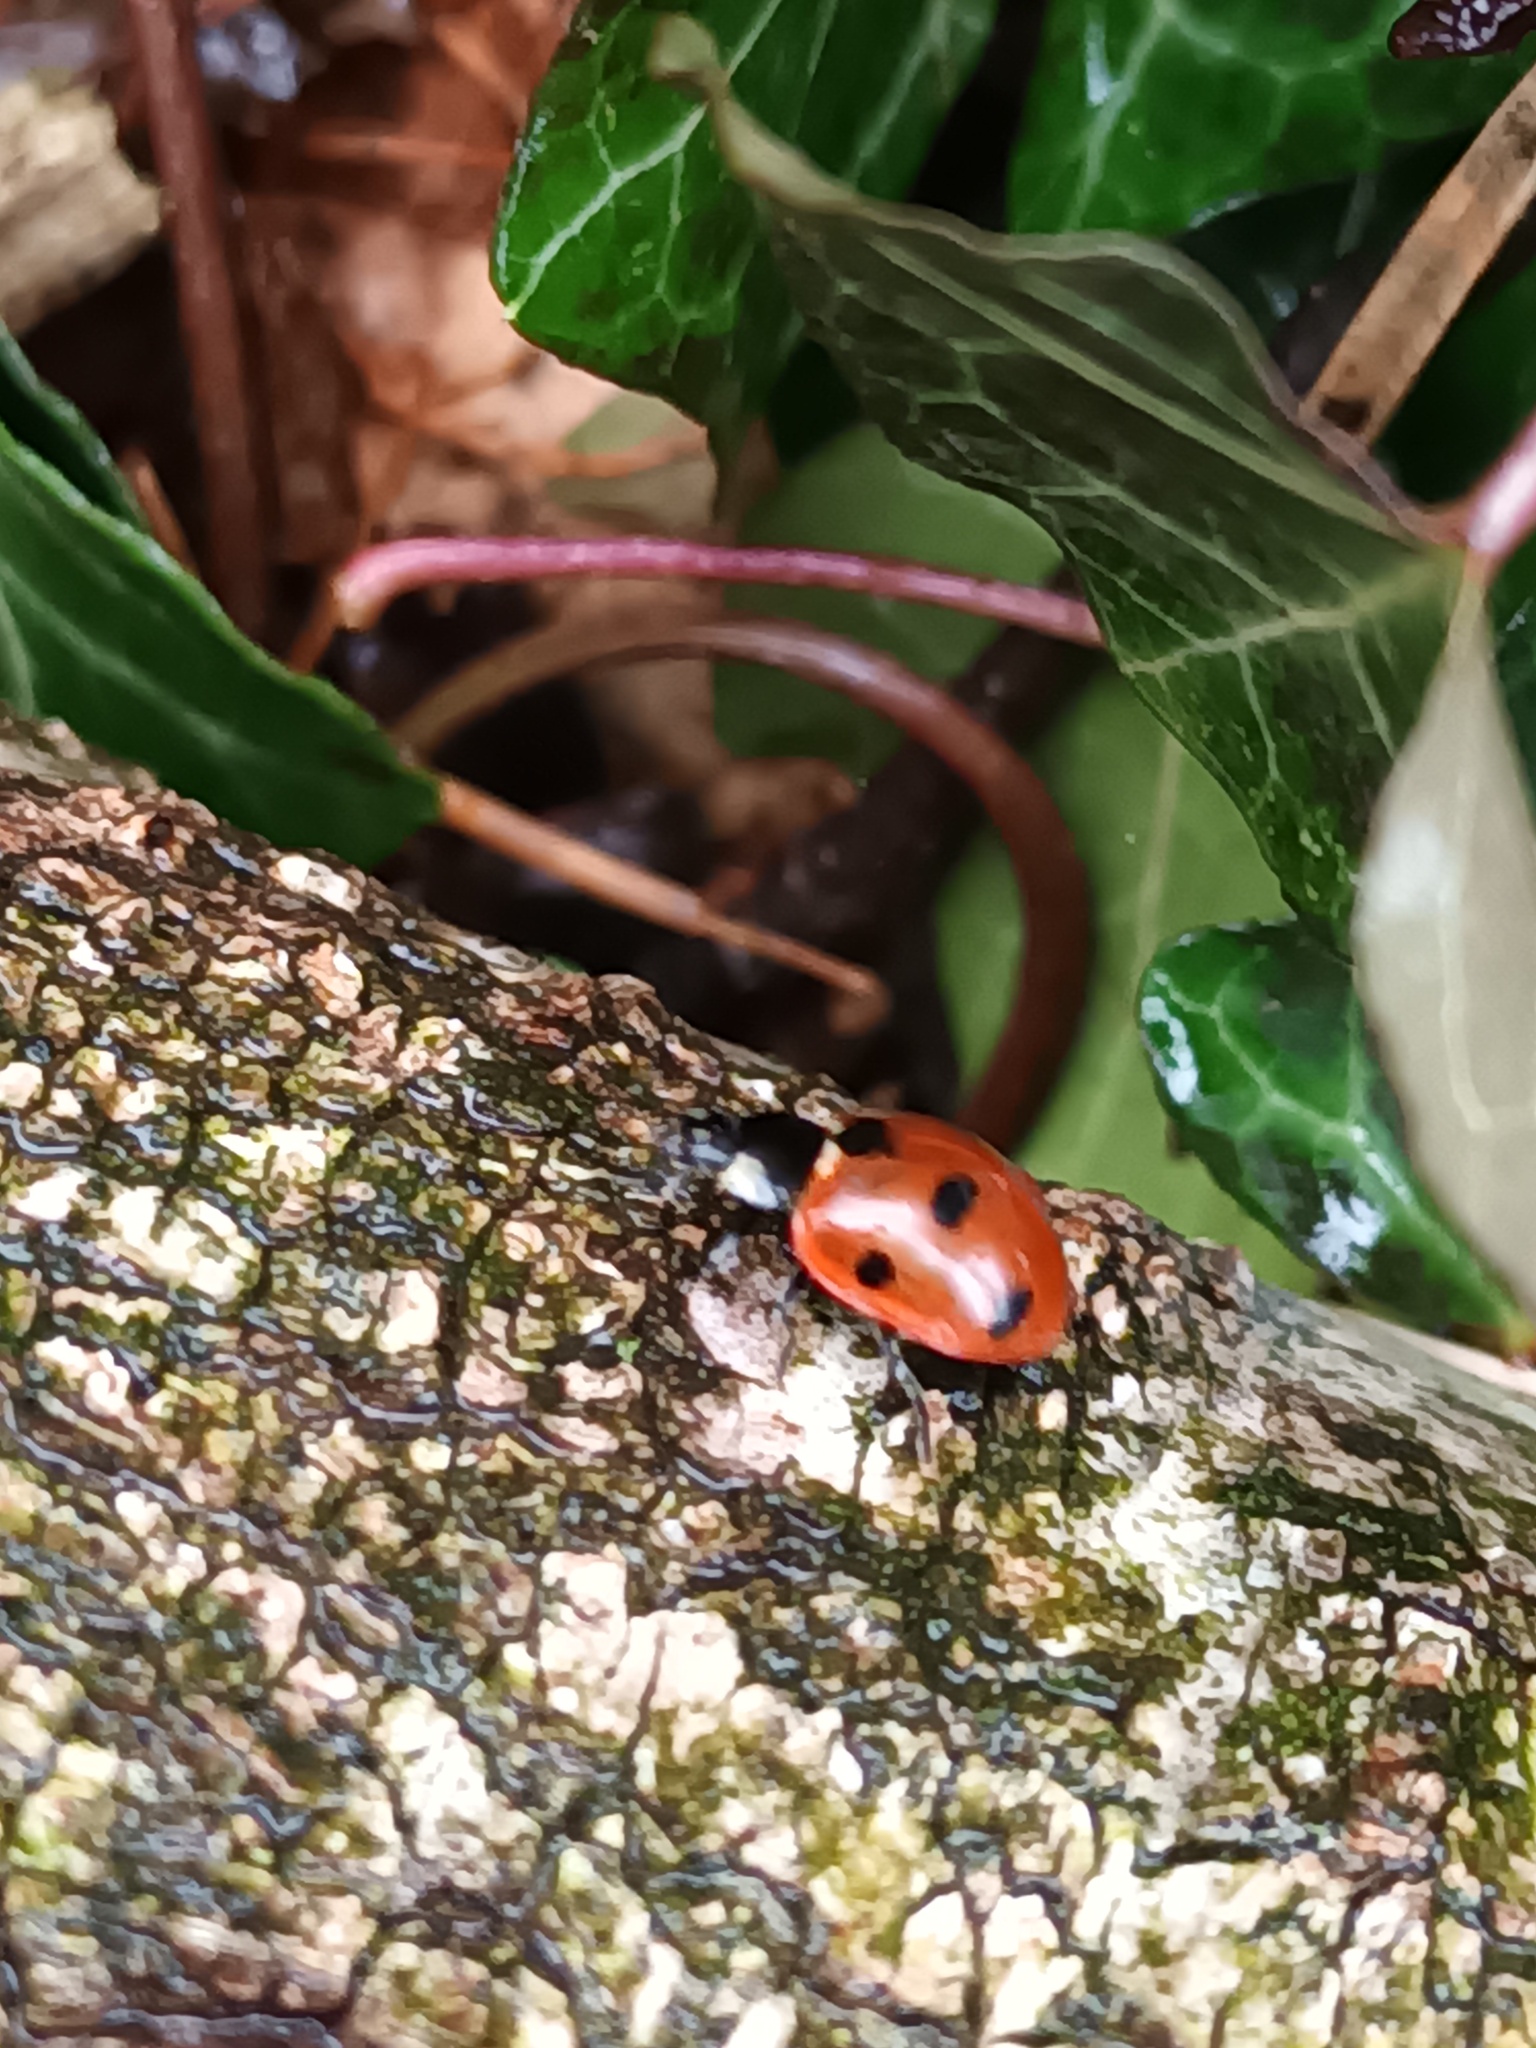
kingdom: Animalia
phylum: Arthropoda
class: Insecta
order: Coleoptera
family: Coccinellidae
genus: Coccinella
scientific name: Coccinella septempunctata
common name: Sevenspotted lady beetle
